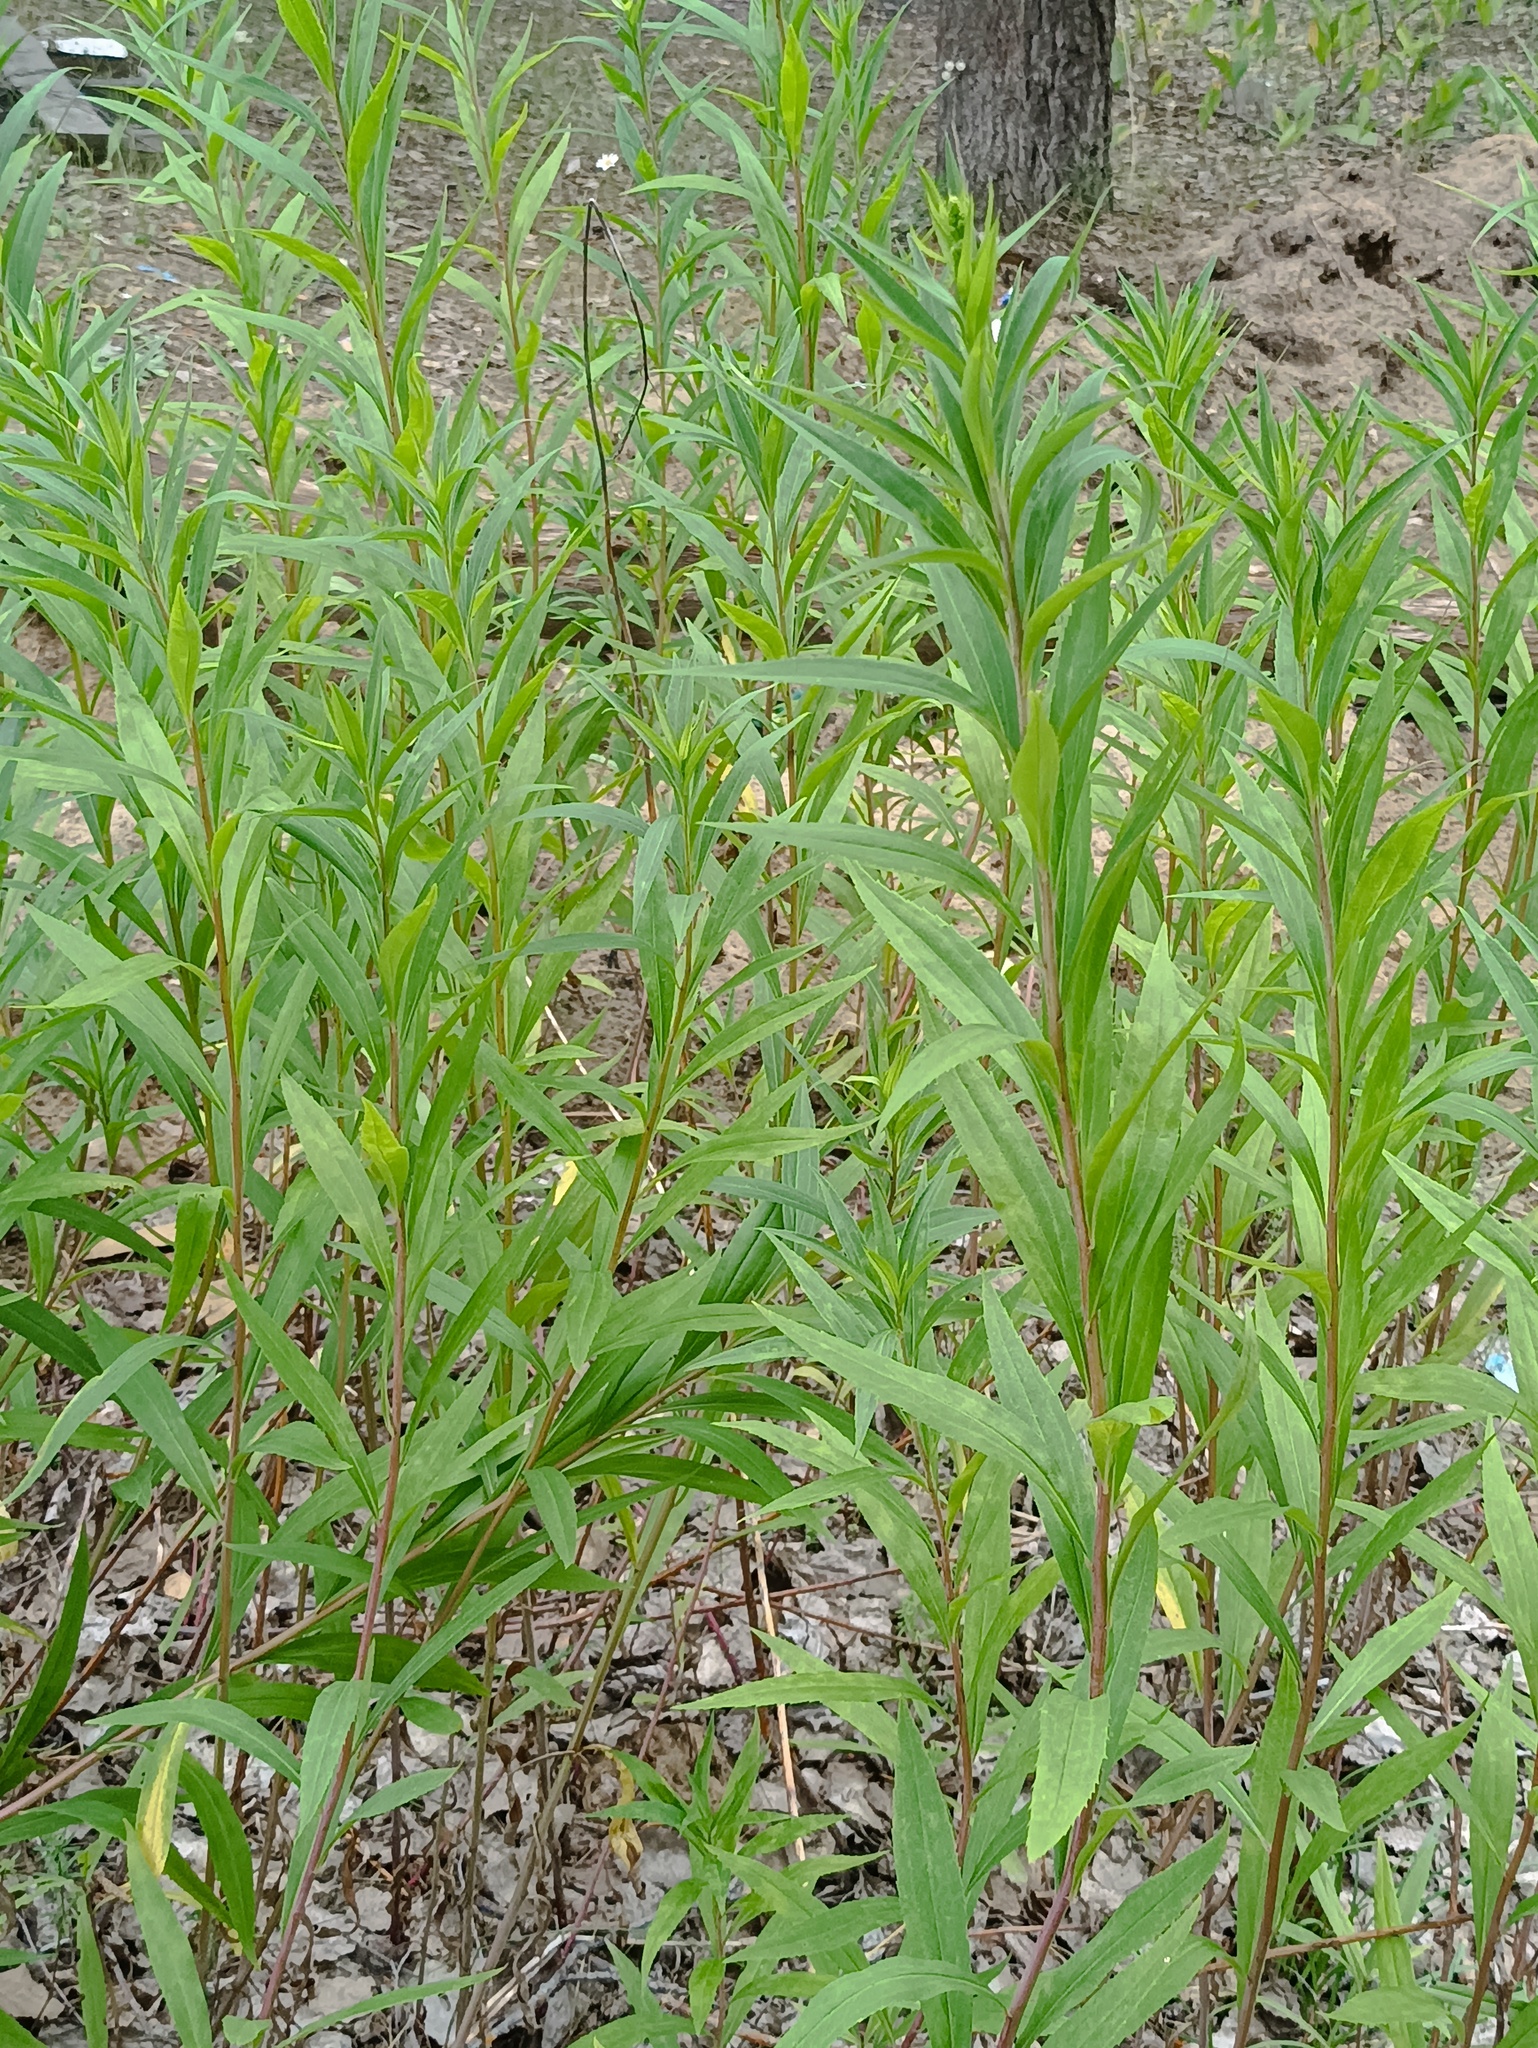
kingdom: Plantae
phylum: Tracheophyta
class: Magnoliopsida
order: Asterales
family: Asteraceae
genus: Solidago
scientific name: Solidago gigantea
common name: Giant goldenrod
